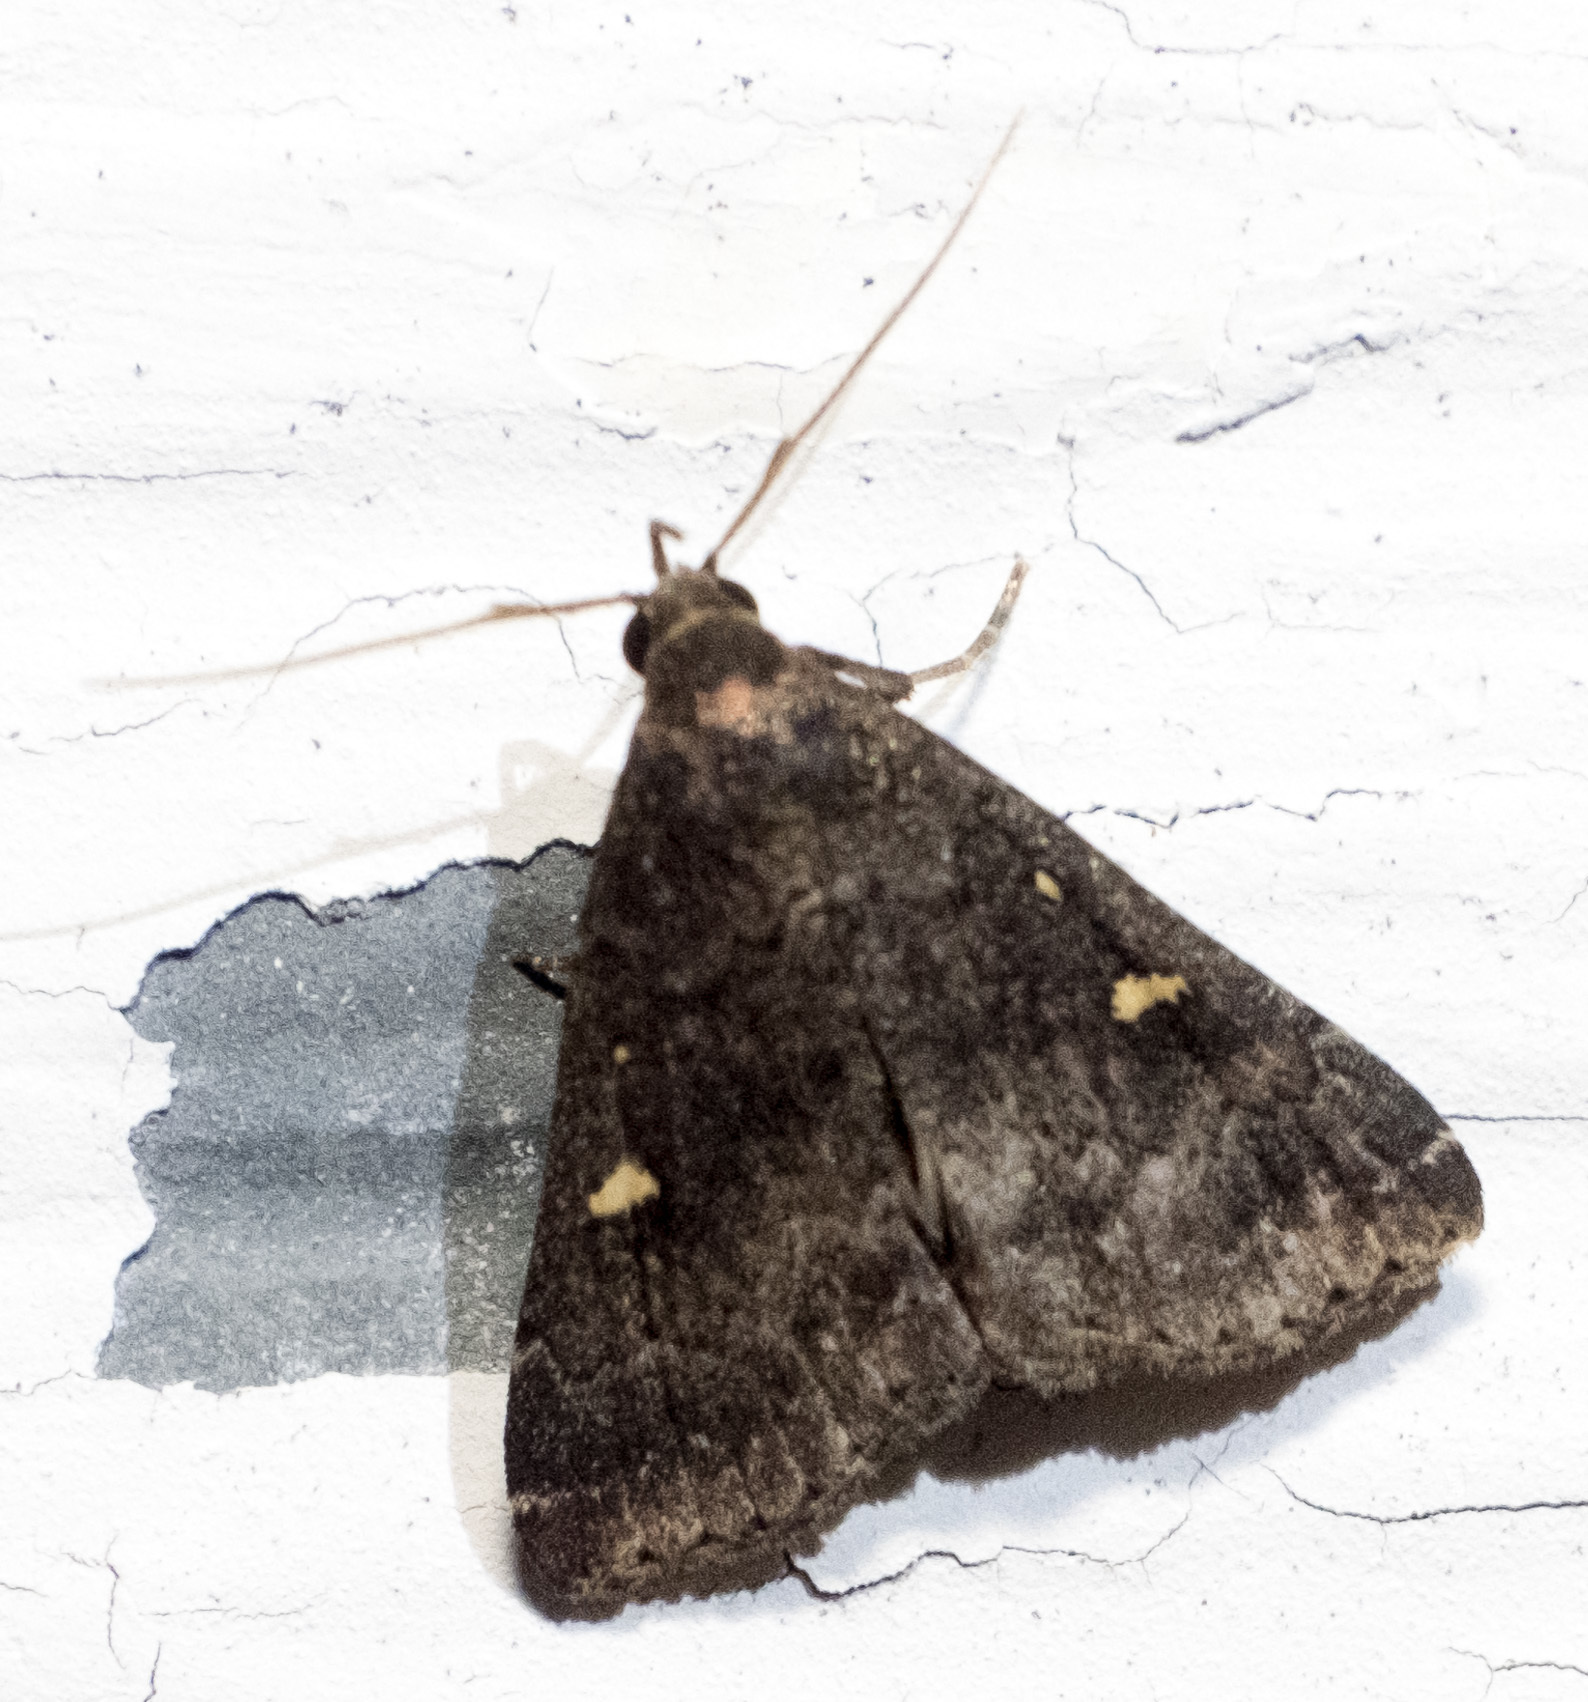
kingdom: Animalia
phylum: Arthropoda
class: Insecta
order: Lepidoptera
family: Erebidae
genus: Tetanolita
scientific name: Tetanolita mynesalis
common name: Smoky tetanolita moth
